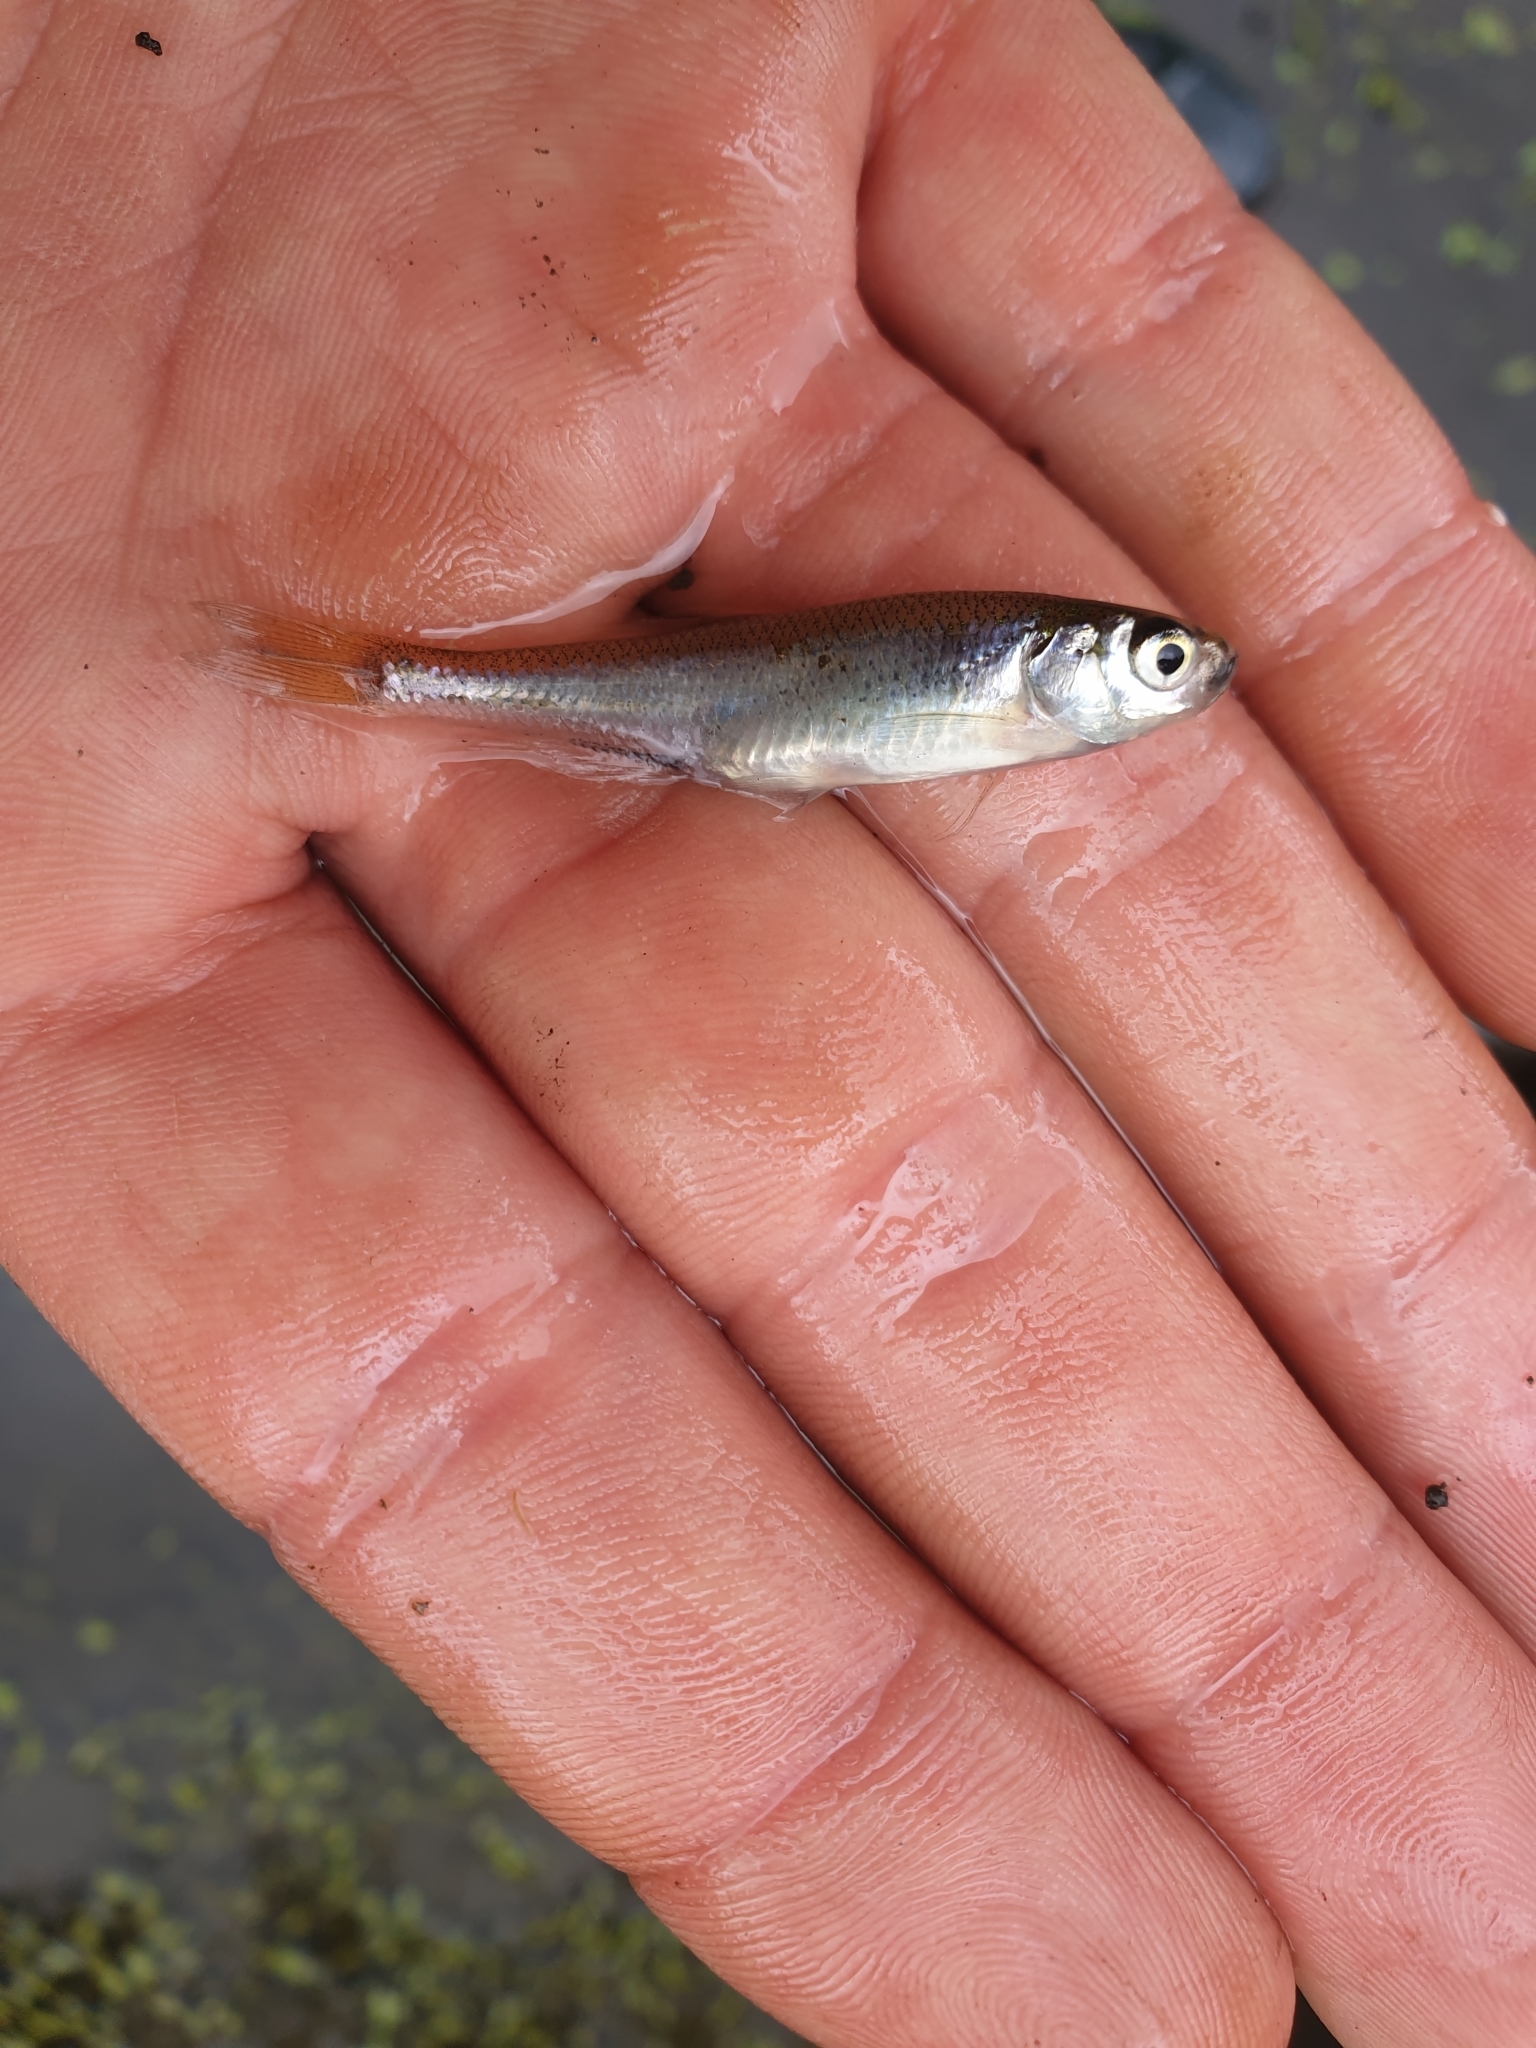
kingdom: Animalia
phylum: Chordata
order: Cypriniformes
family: Cyprinidae
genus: Leucaspius
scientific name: Leucaspius delineatus
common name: Sunbleak
